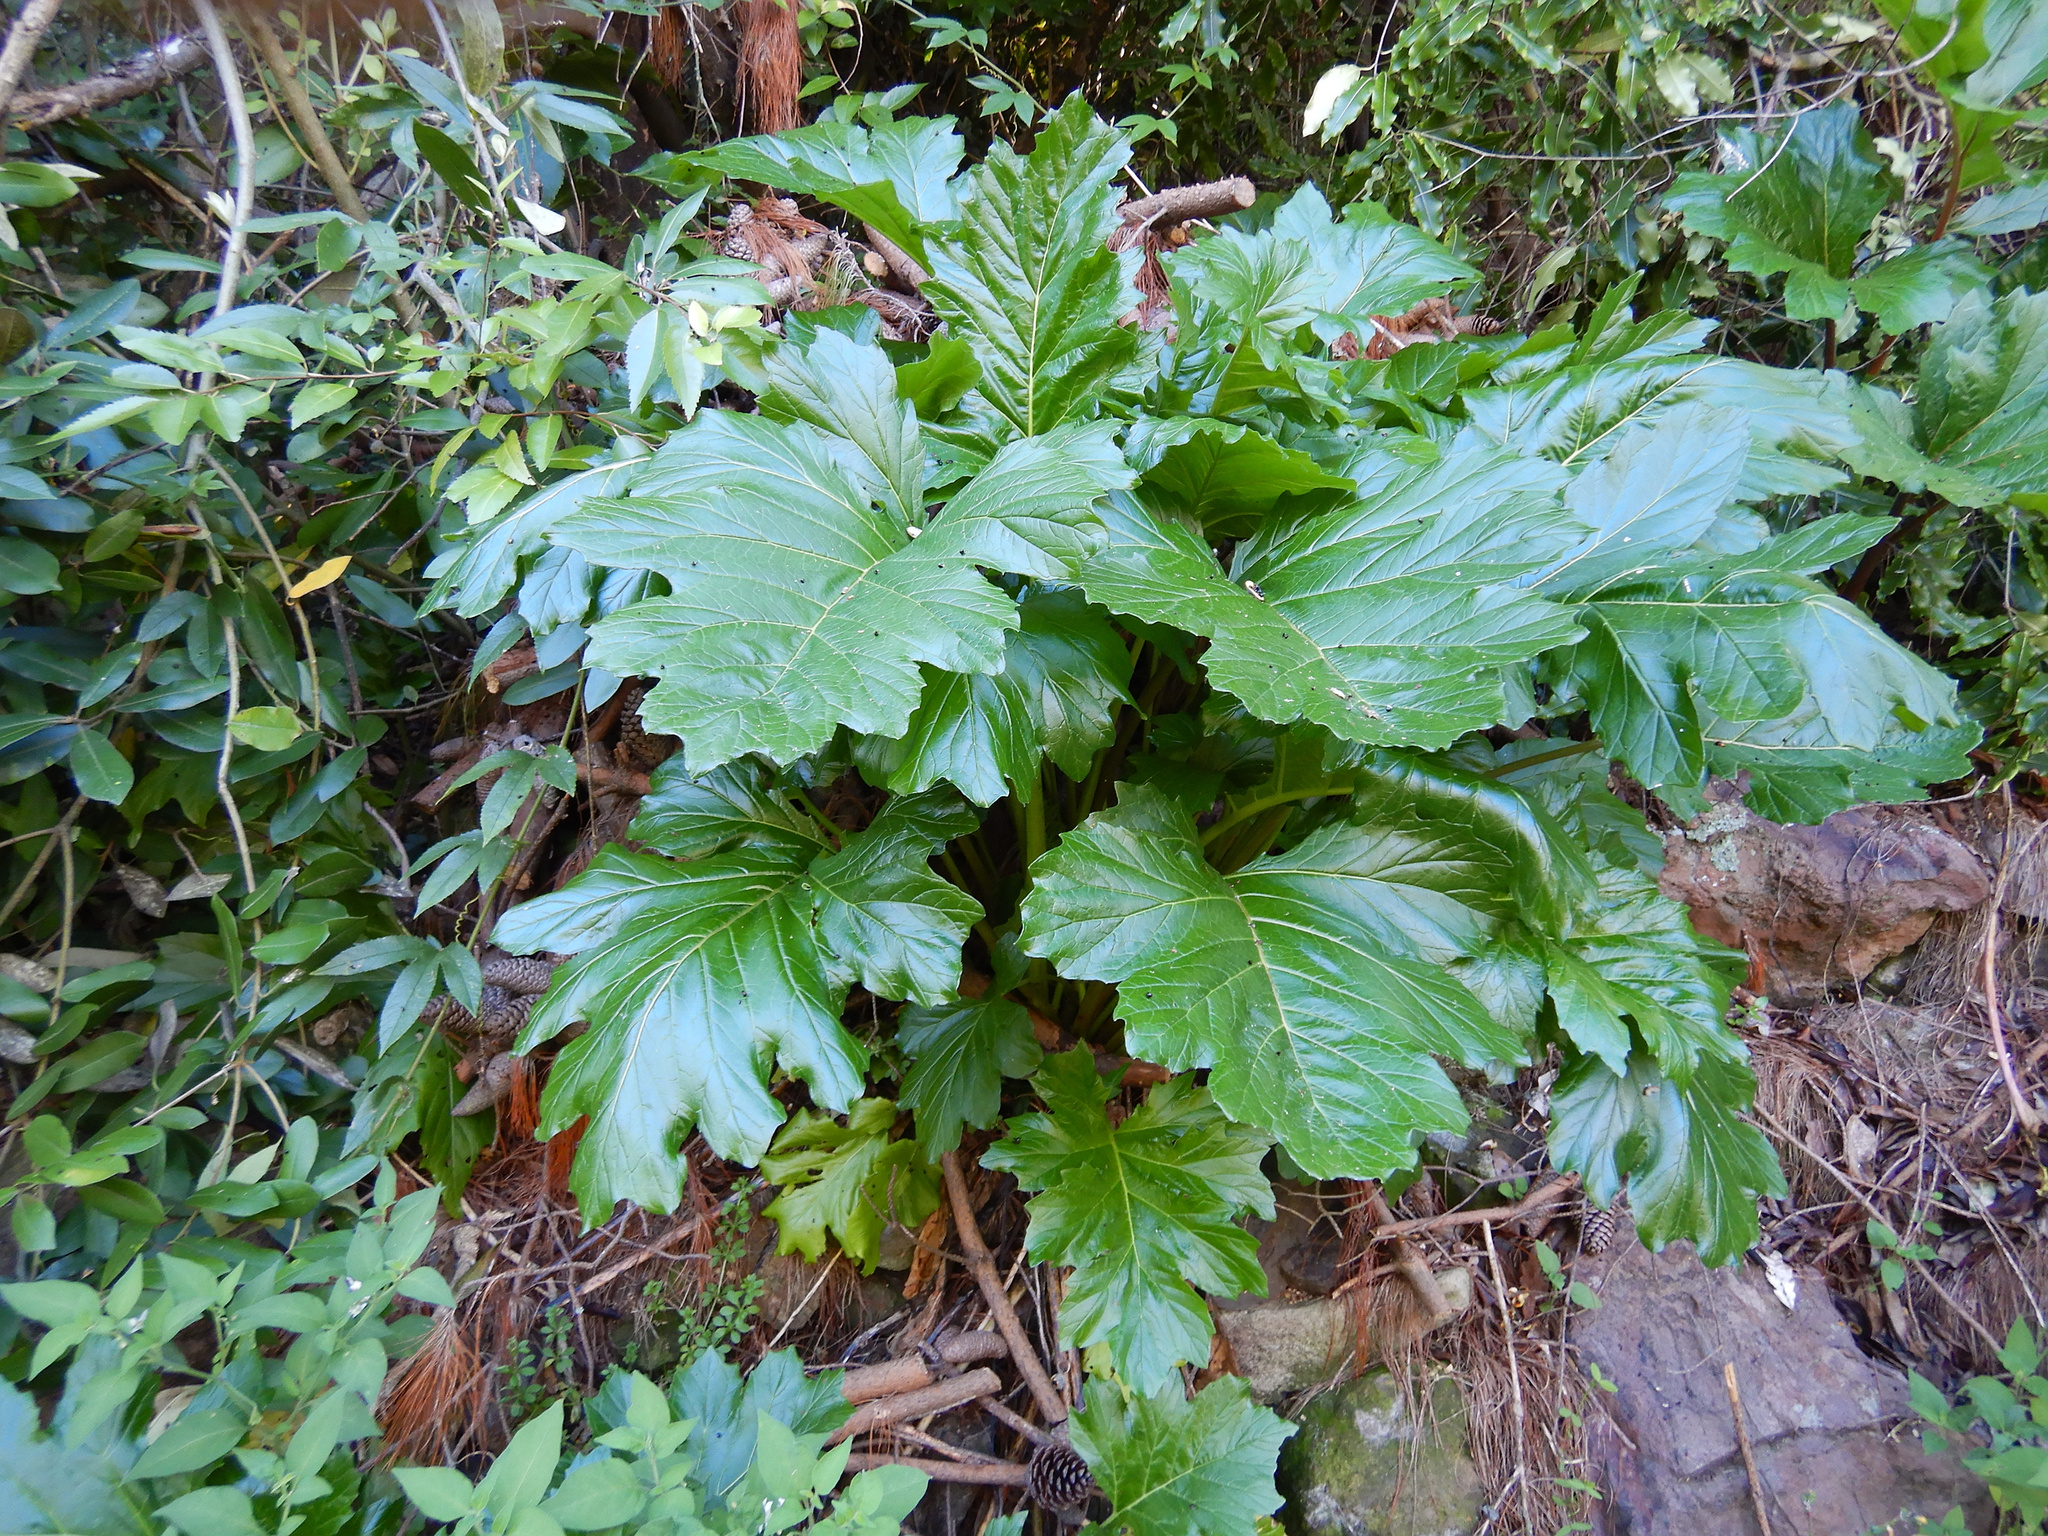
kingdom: Plantae
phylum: Tracheophyta
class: Magnoliopsida
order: Lamiales
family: Acanthaceae
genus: Acanthus
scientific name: Acanthus mollis
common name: Bear's-breech
